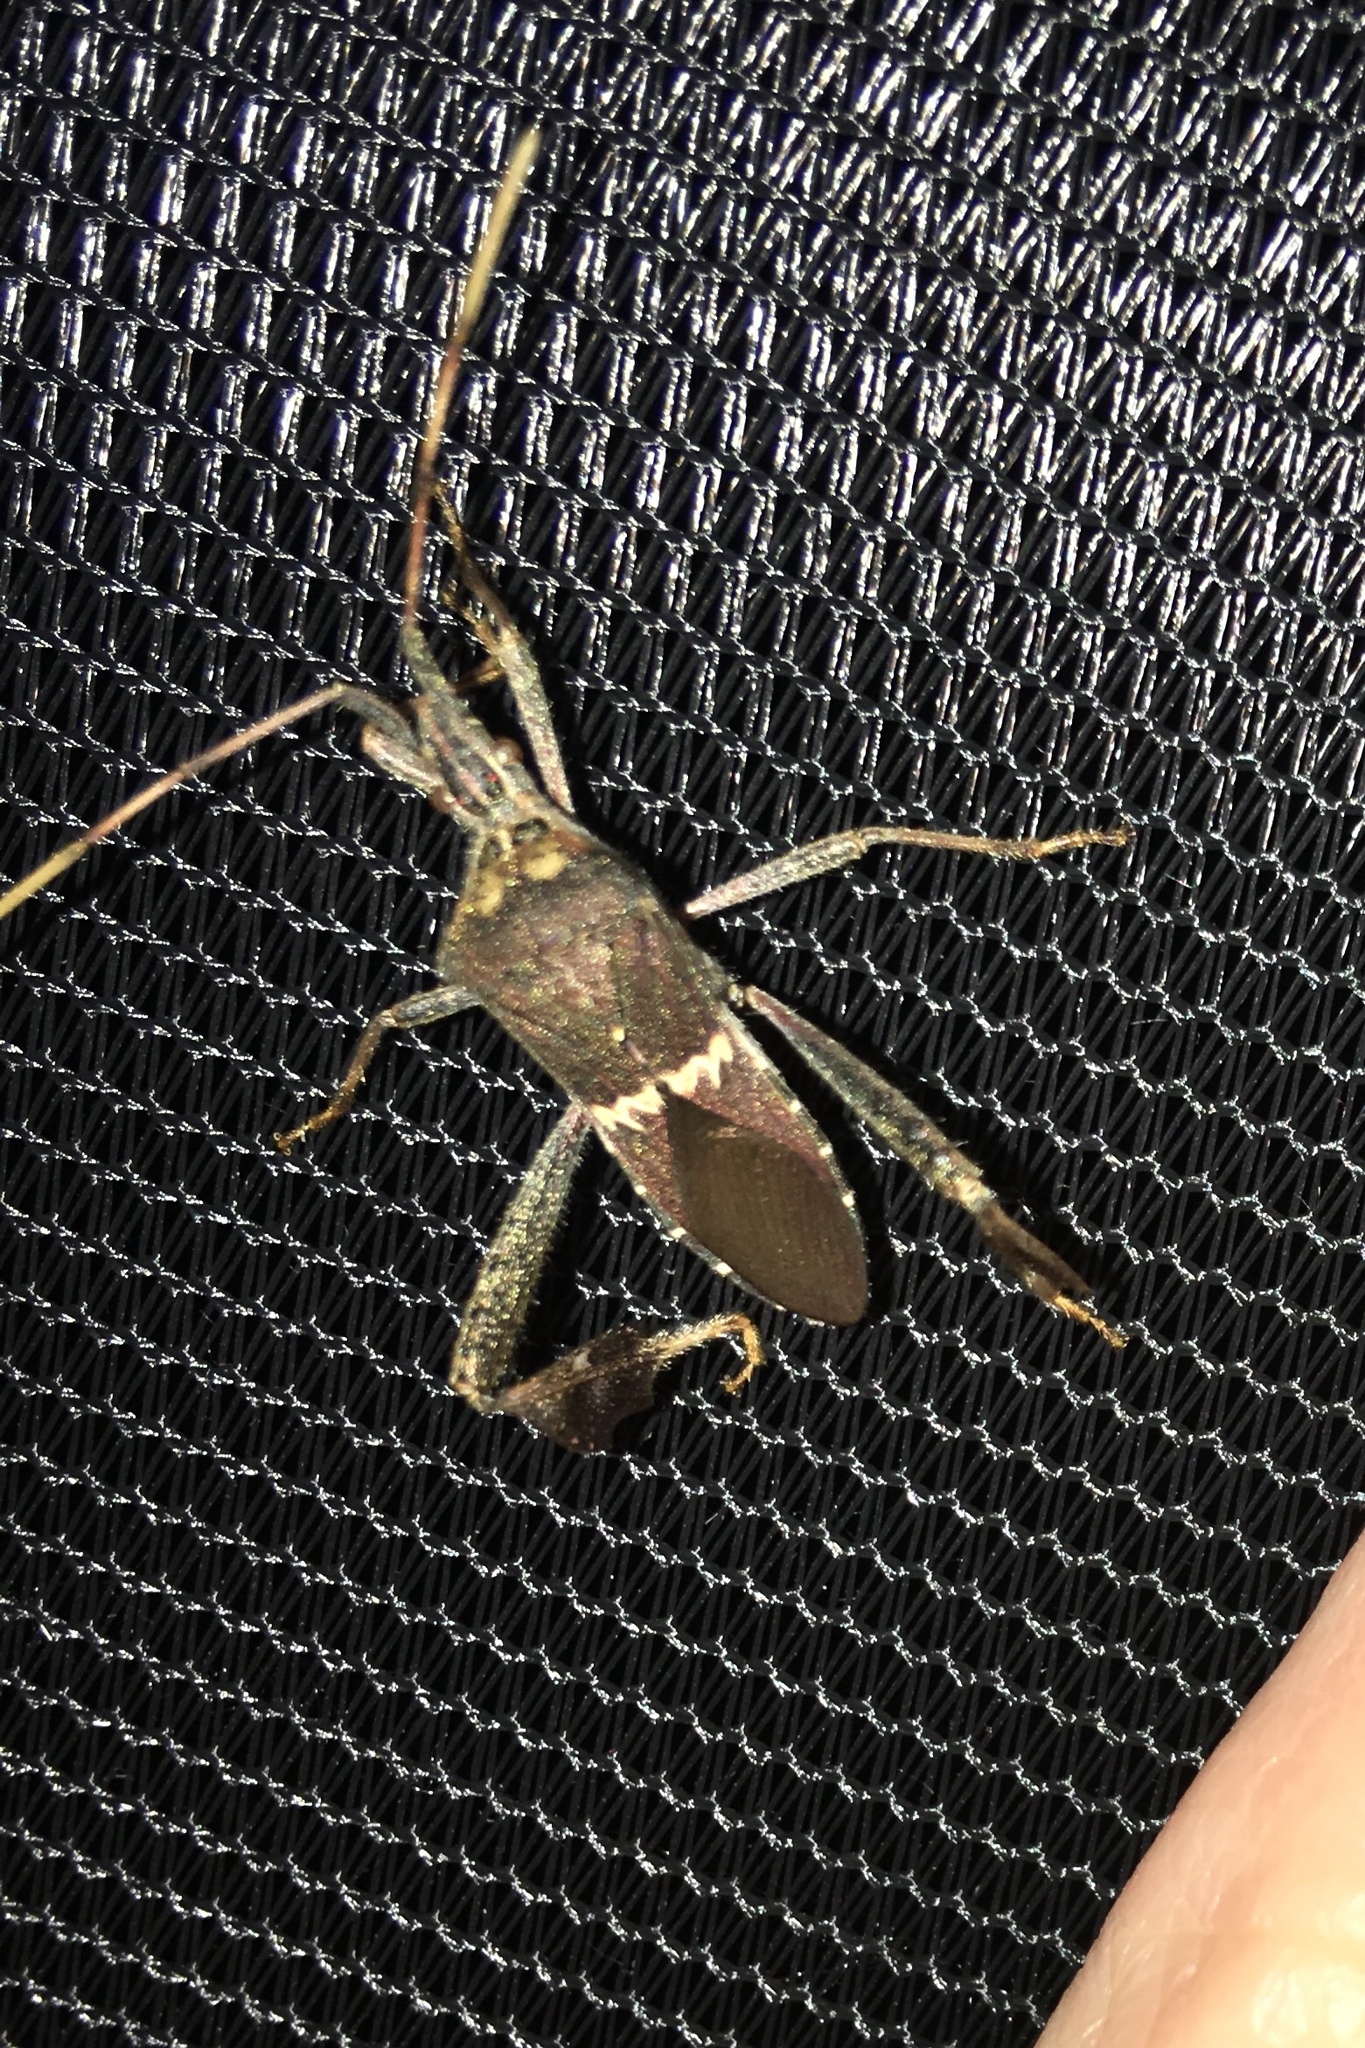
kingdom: Animalia
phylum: Arthropoda
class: Insecta
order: Hemiptera
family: Coreidae
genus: Leptoglossus
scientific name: Leptoglossus zonatus
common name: Large-legged bug
